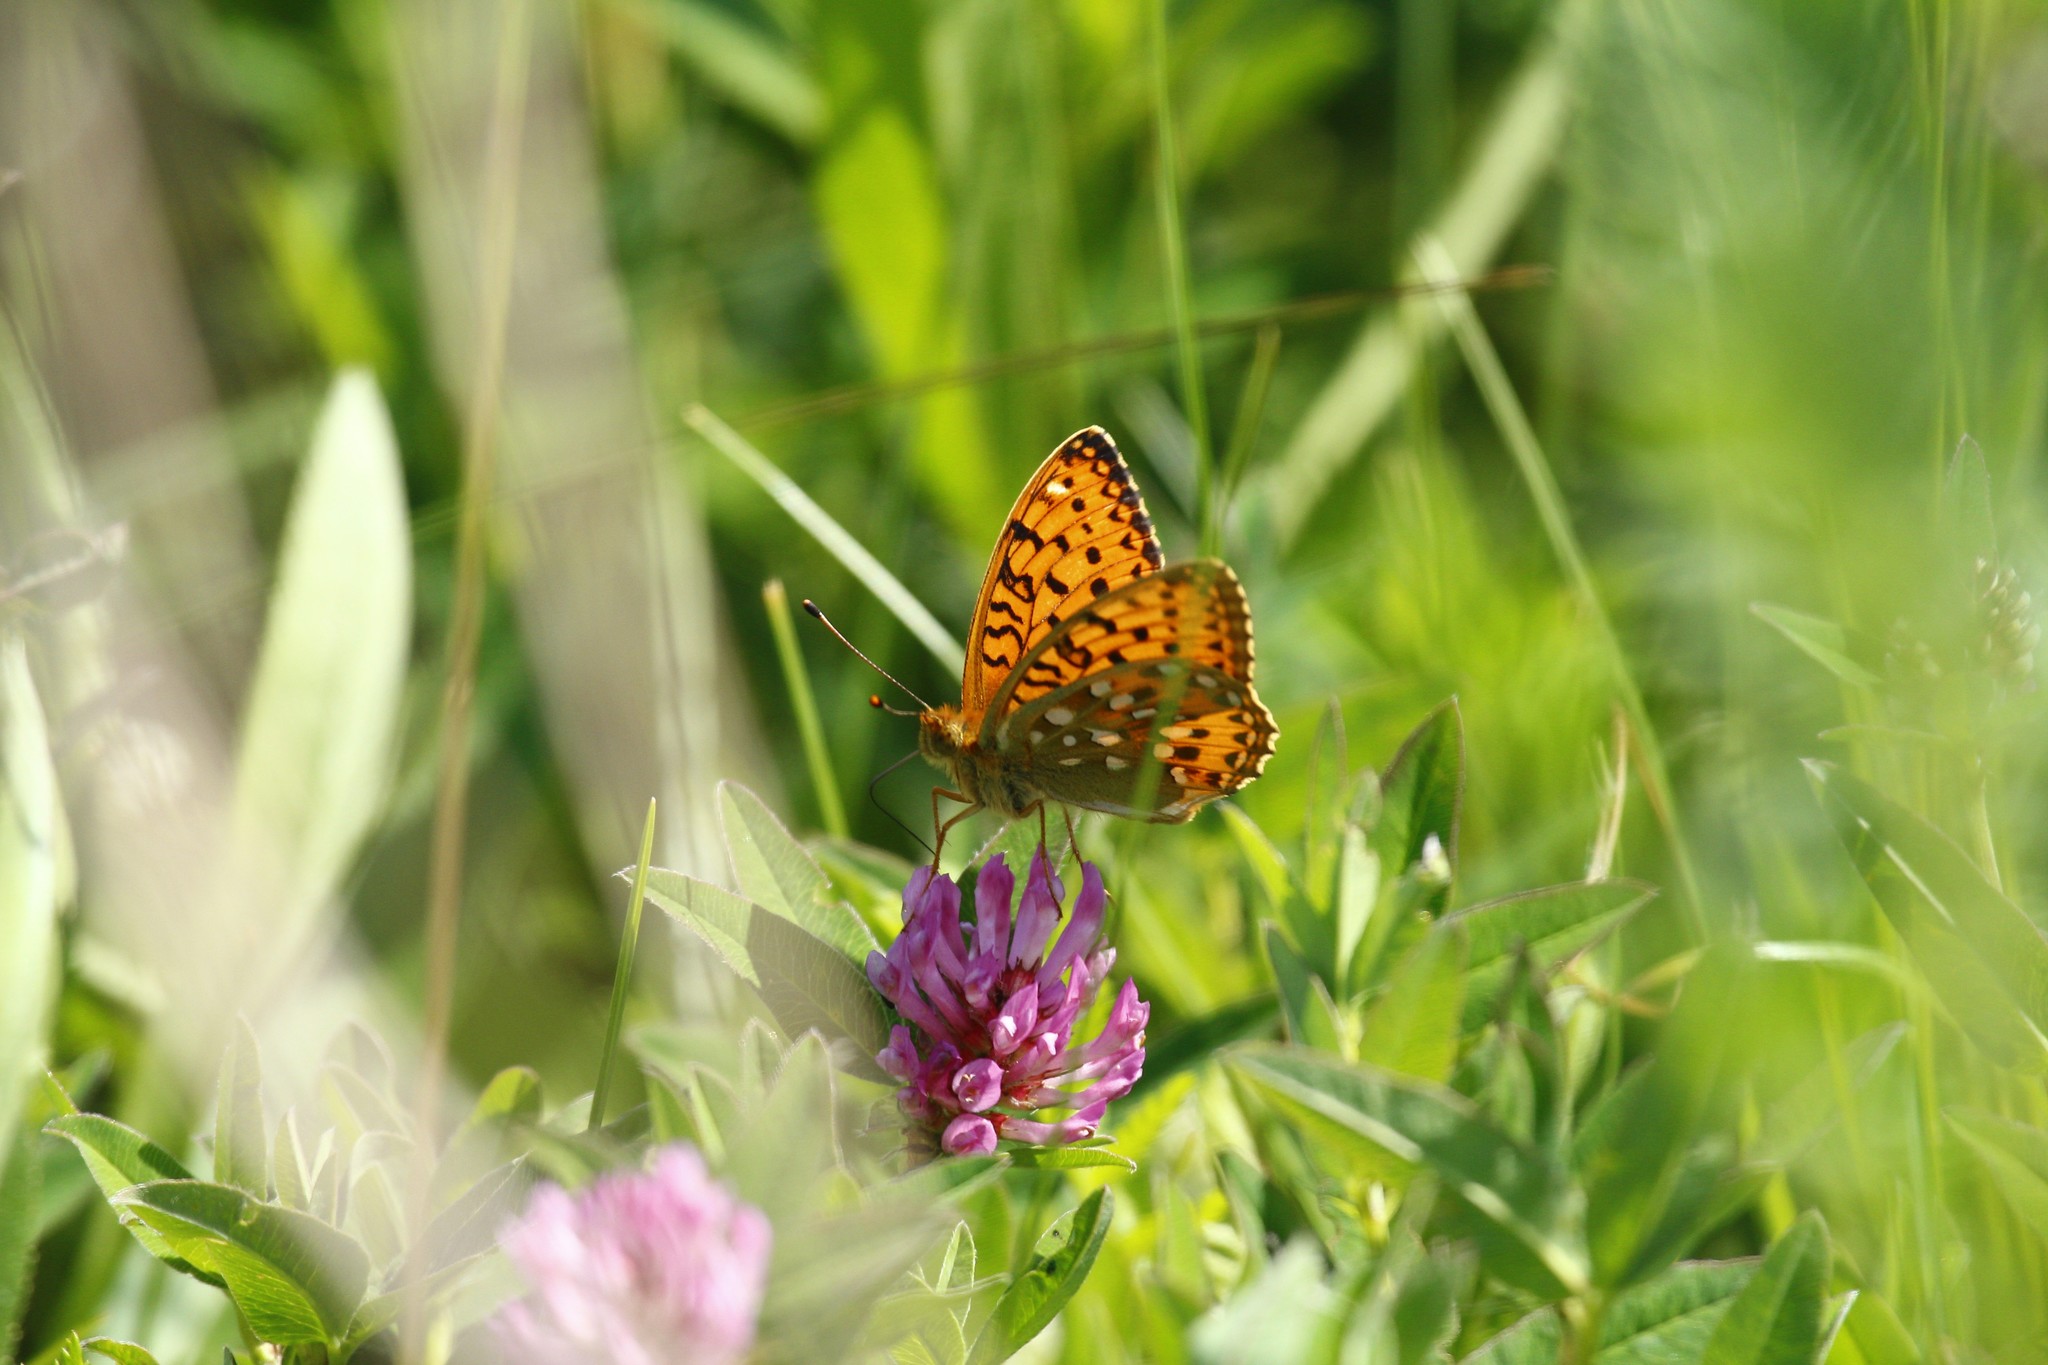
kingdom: Animalia
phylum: Arthropoda
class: Insecta
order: Lepidoptera
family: Nymphalidae
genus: Speyeria
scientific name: Speyeria aglaja
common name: Dark green fritillary
